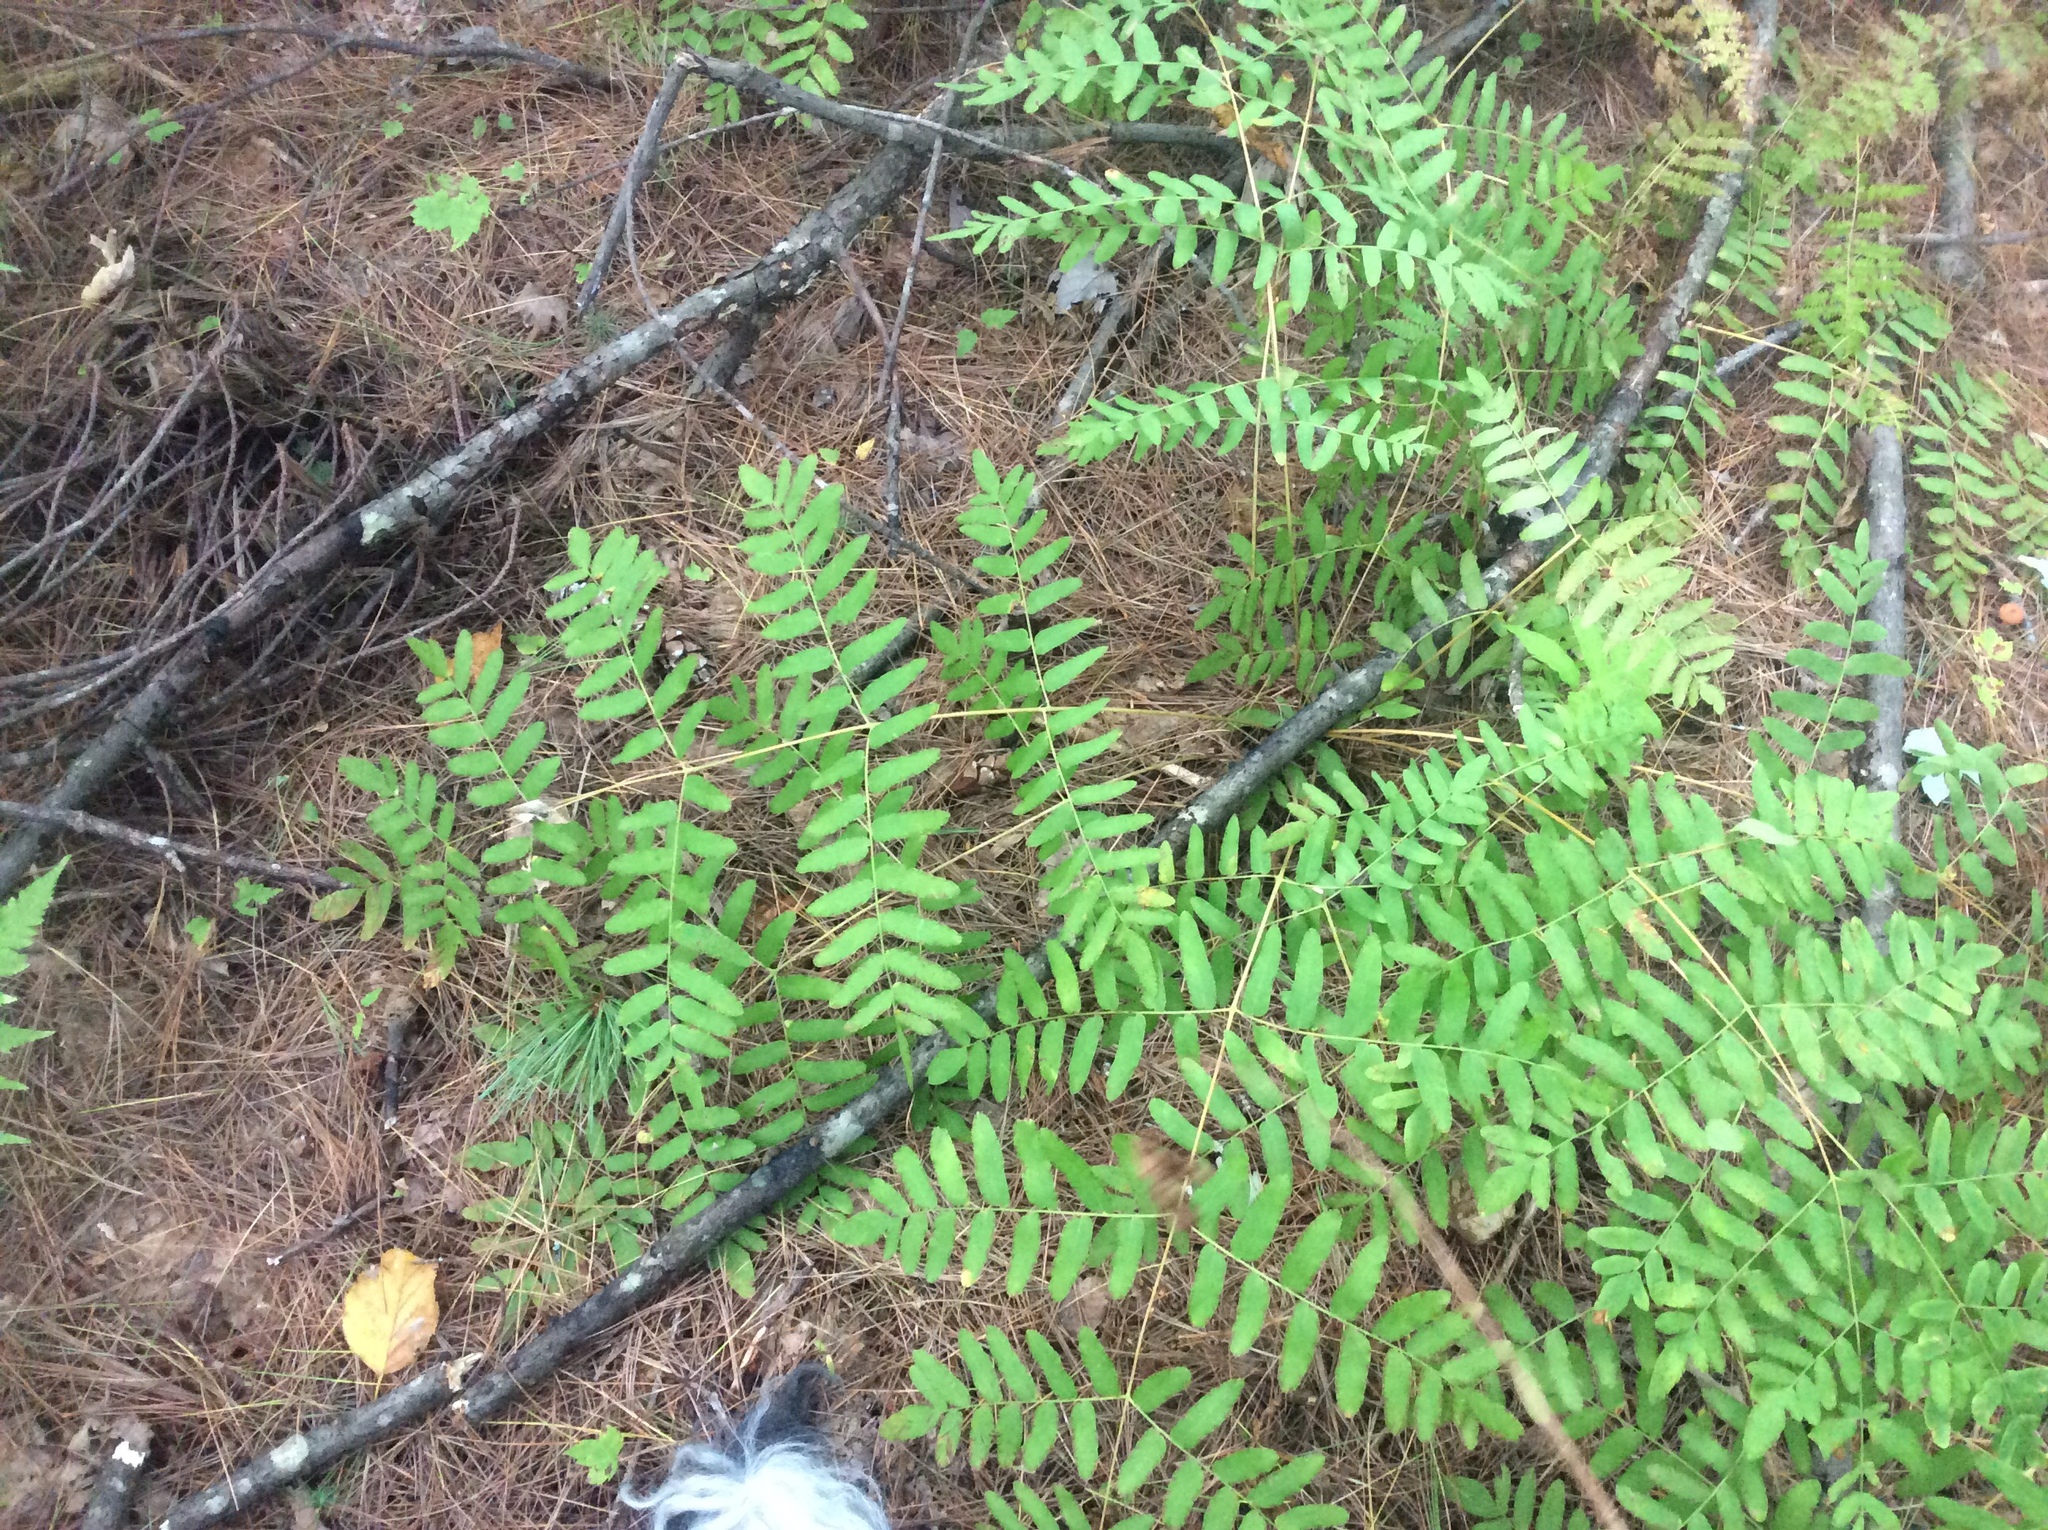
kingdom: Plantae
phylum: Tracheophyta
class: Polypodiopsida
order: Osmundales
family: Osmundaceae
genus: Osmunda
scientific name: Osmunda spectabilis
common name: American royal fern
